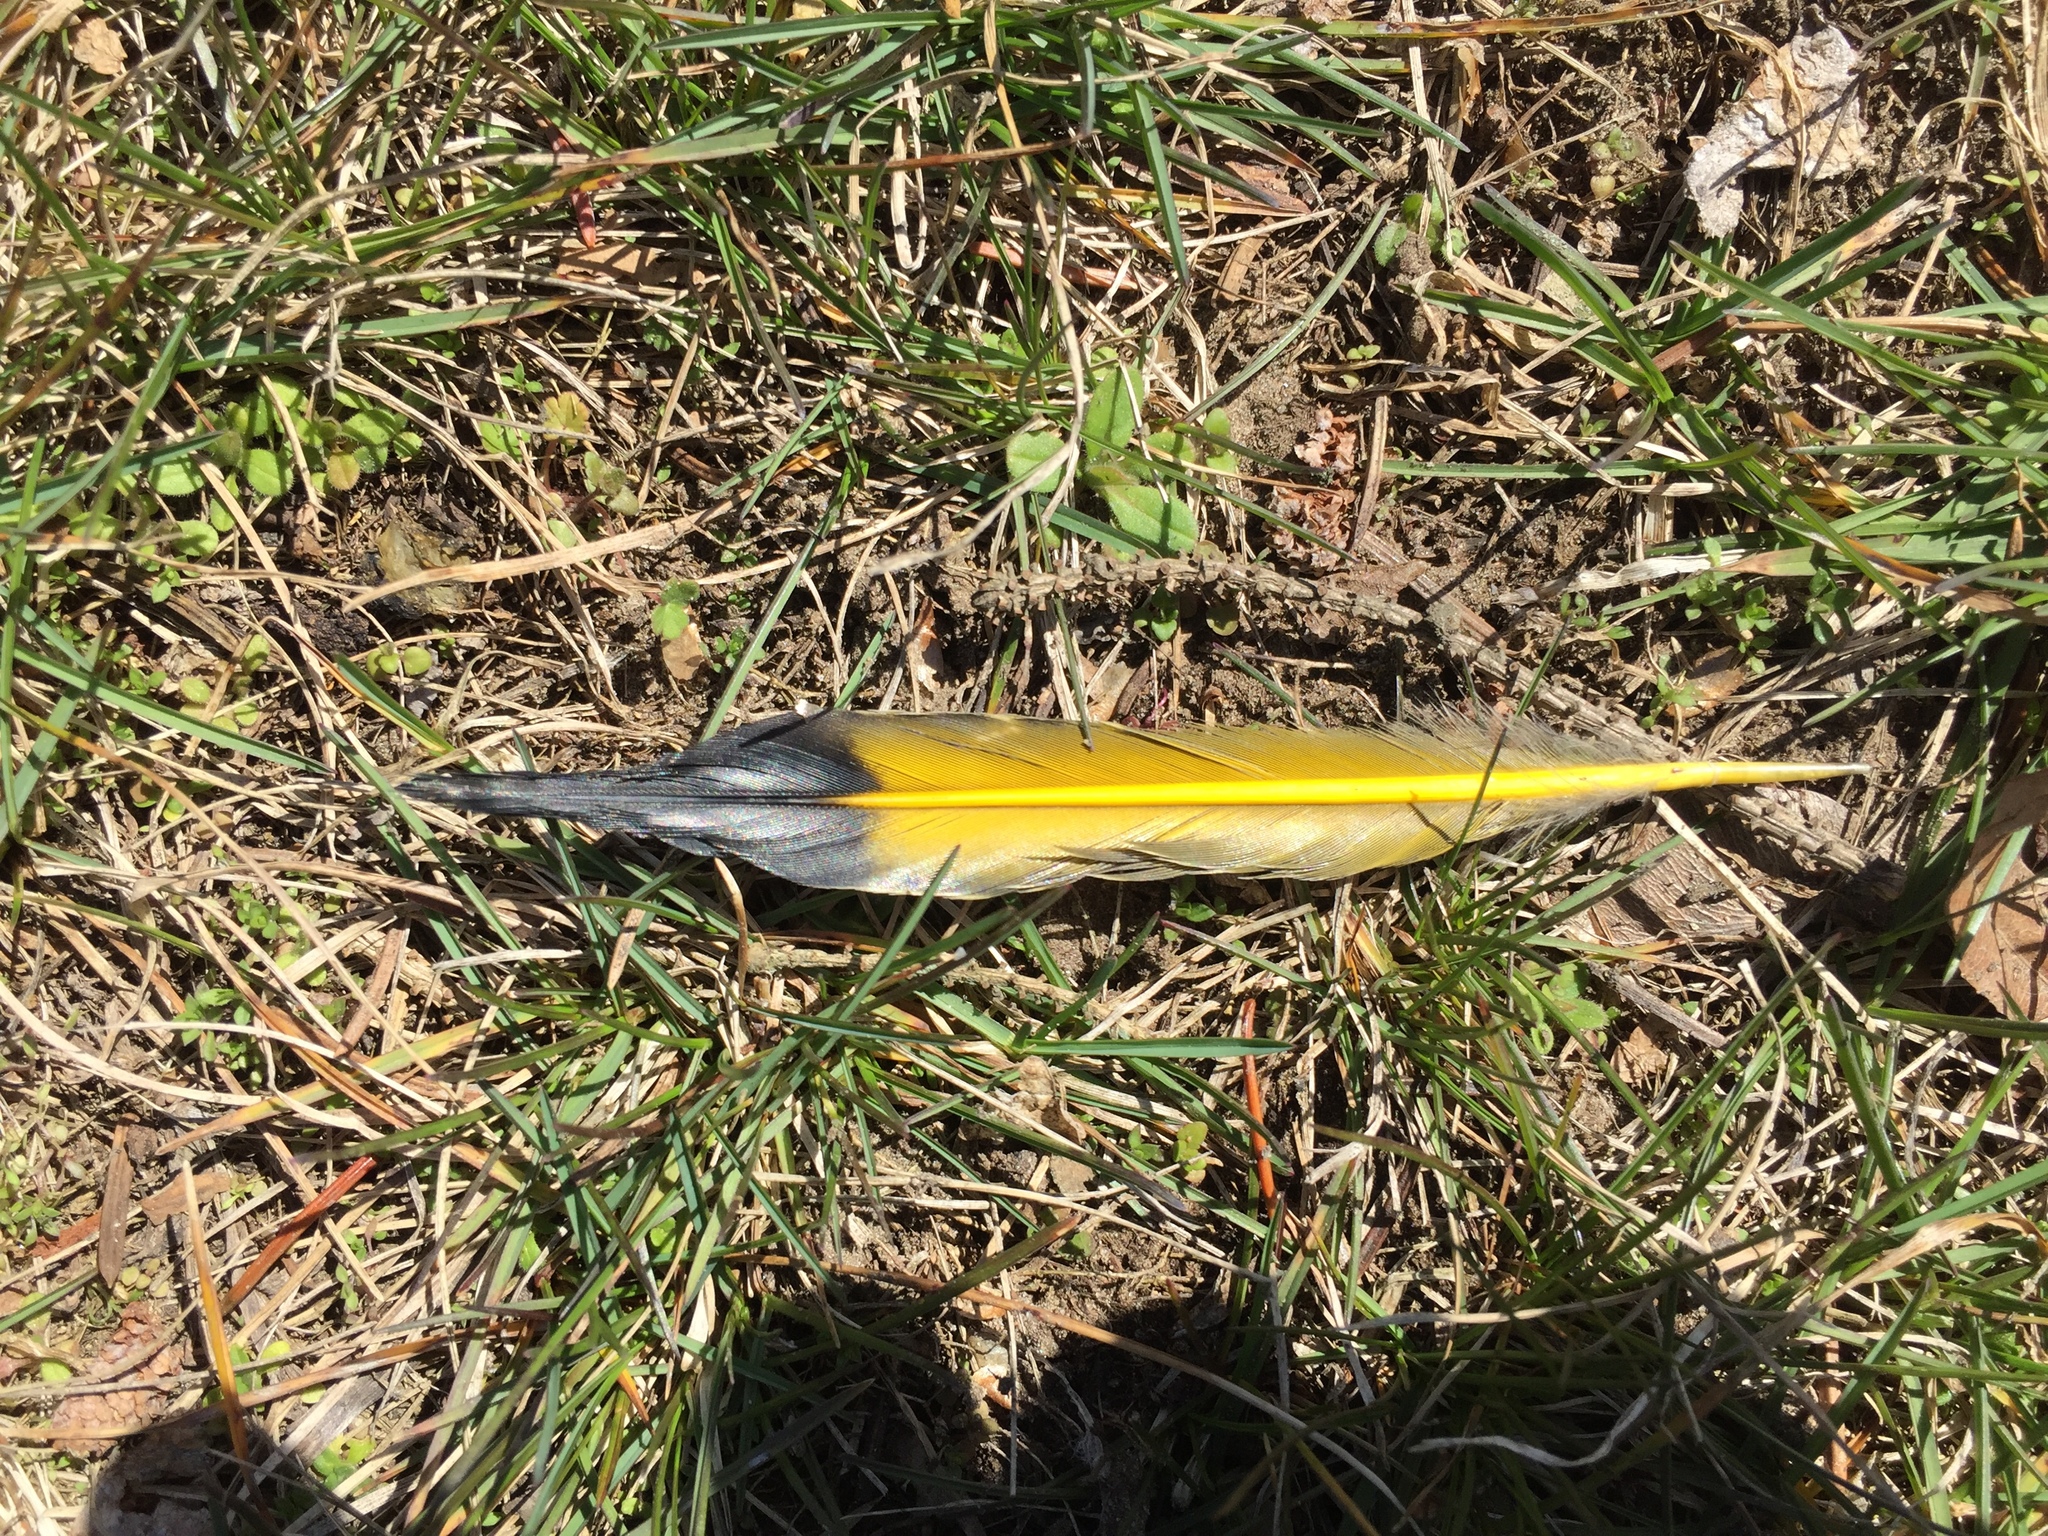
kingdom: Animalia
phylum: Chordata
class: Aves
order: Piciformes
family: Picidae
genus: Colaptes
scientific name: Colaptes auratus
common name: Northern flicker
